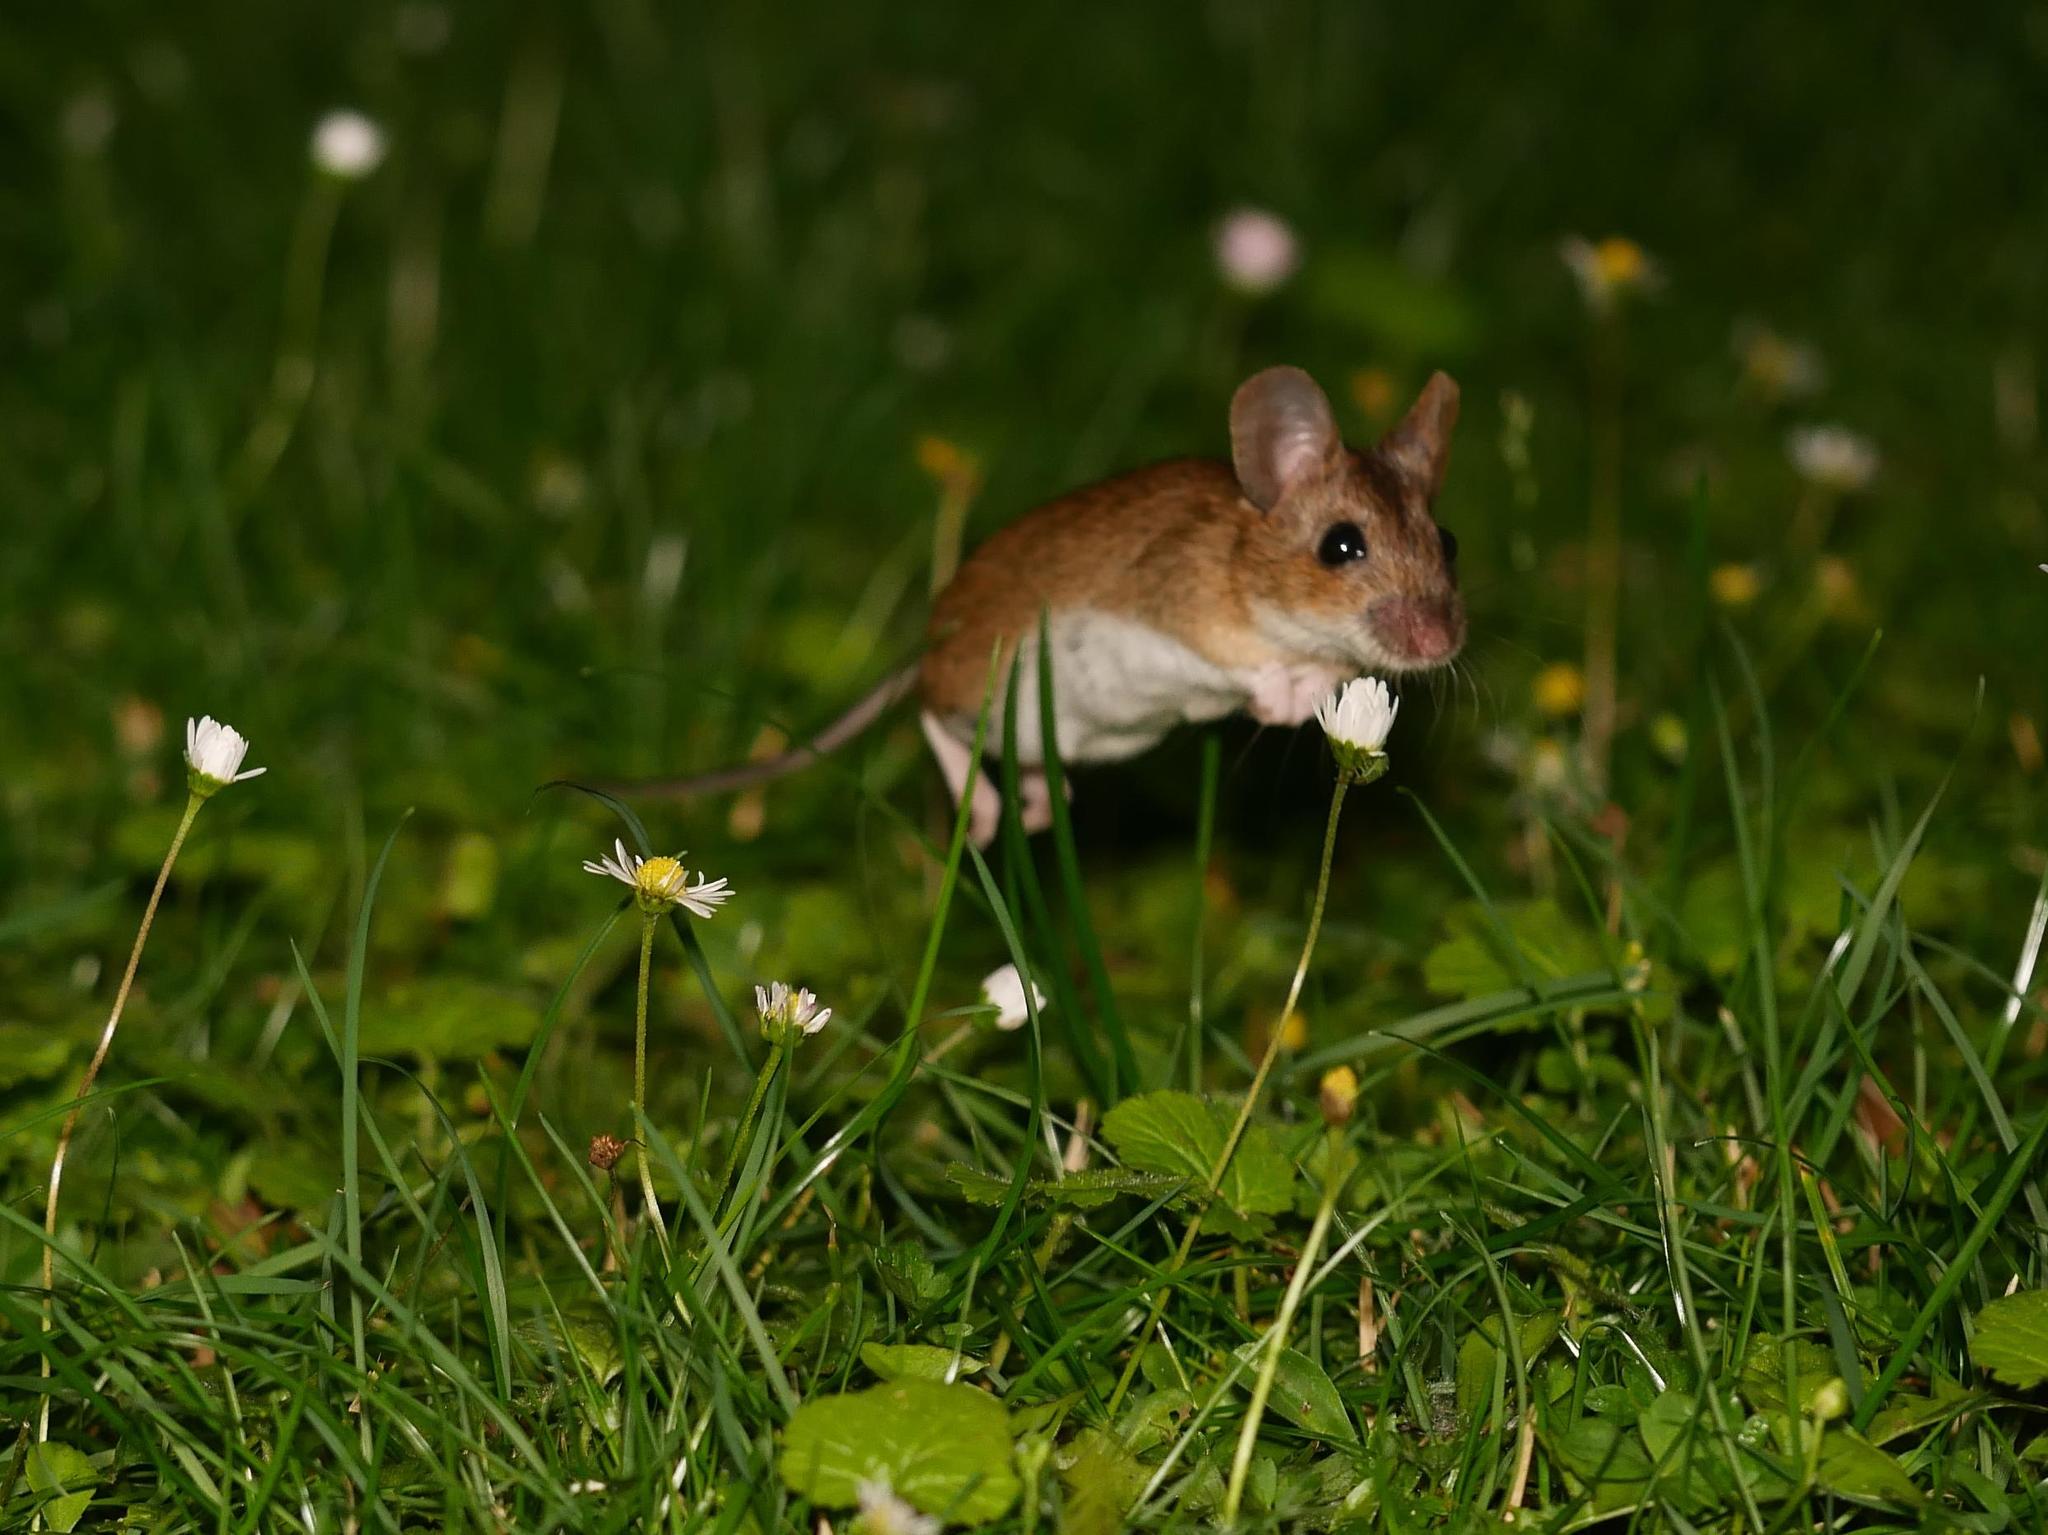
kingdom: Animalia
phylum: Chordata
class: Mammalia
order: Rodentia
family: Muridae
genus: Apodemus
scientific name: Apodemus flavicollis
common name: Yellow-necked field mouse
